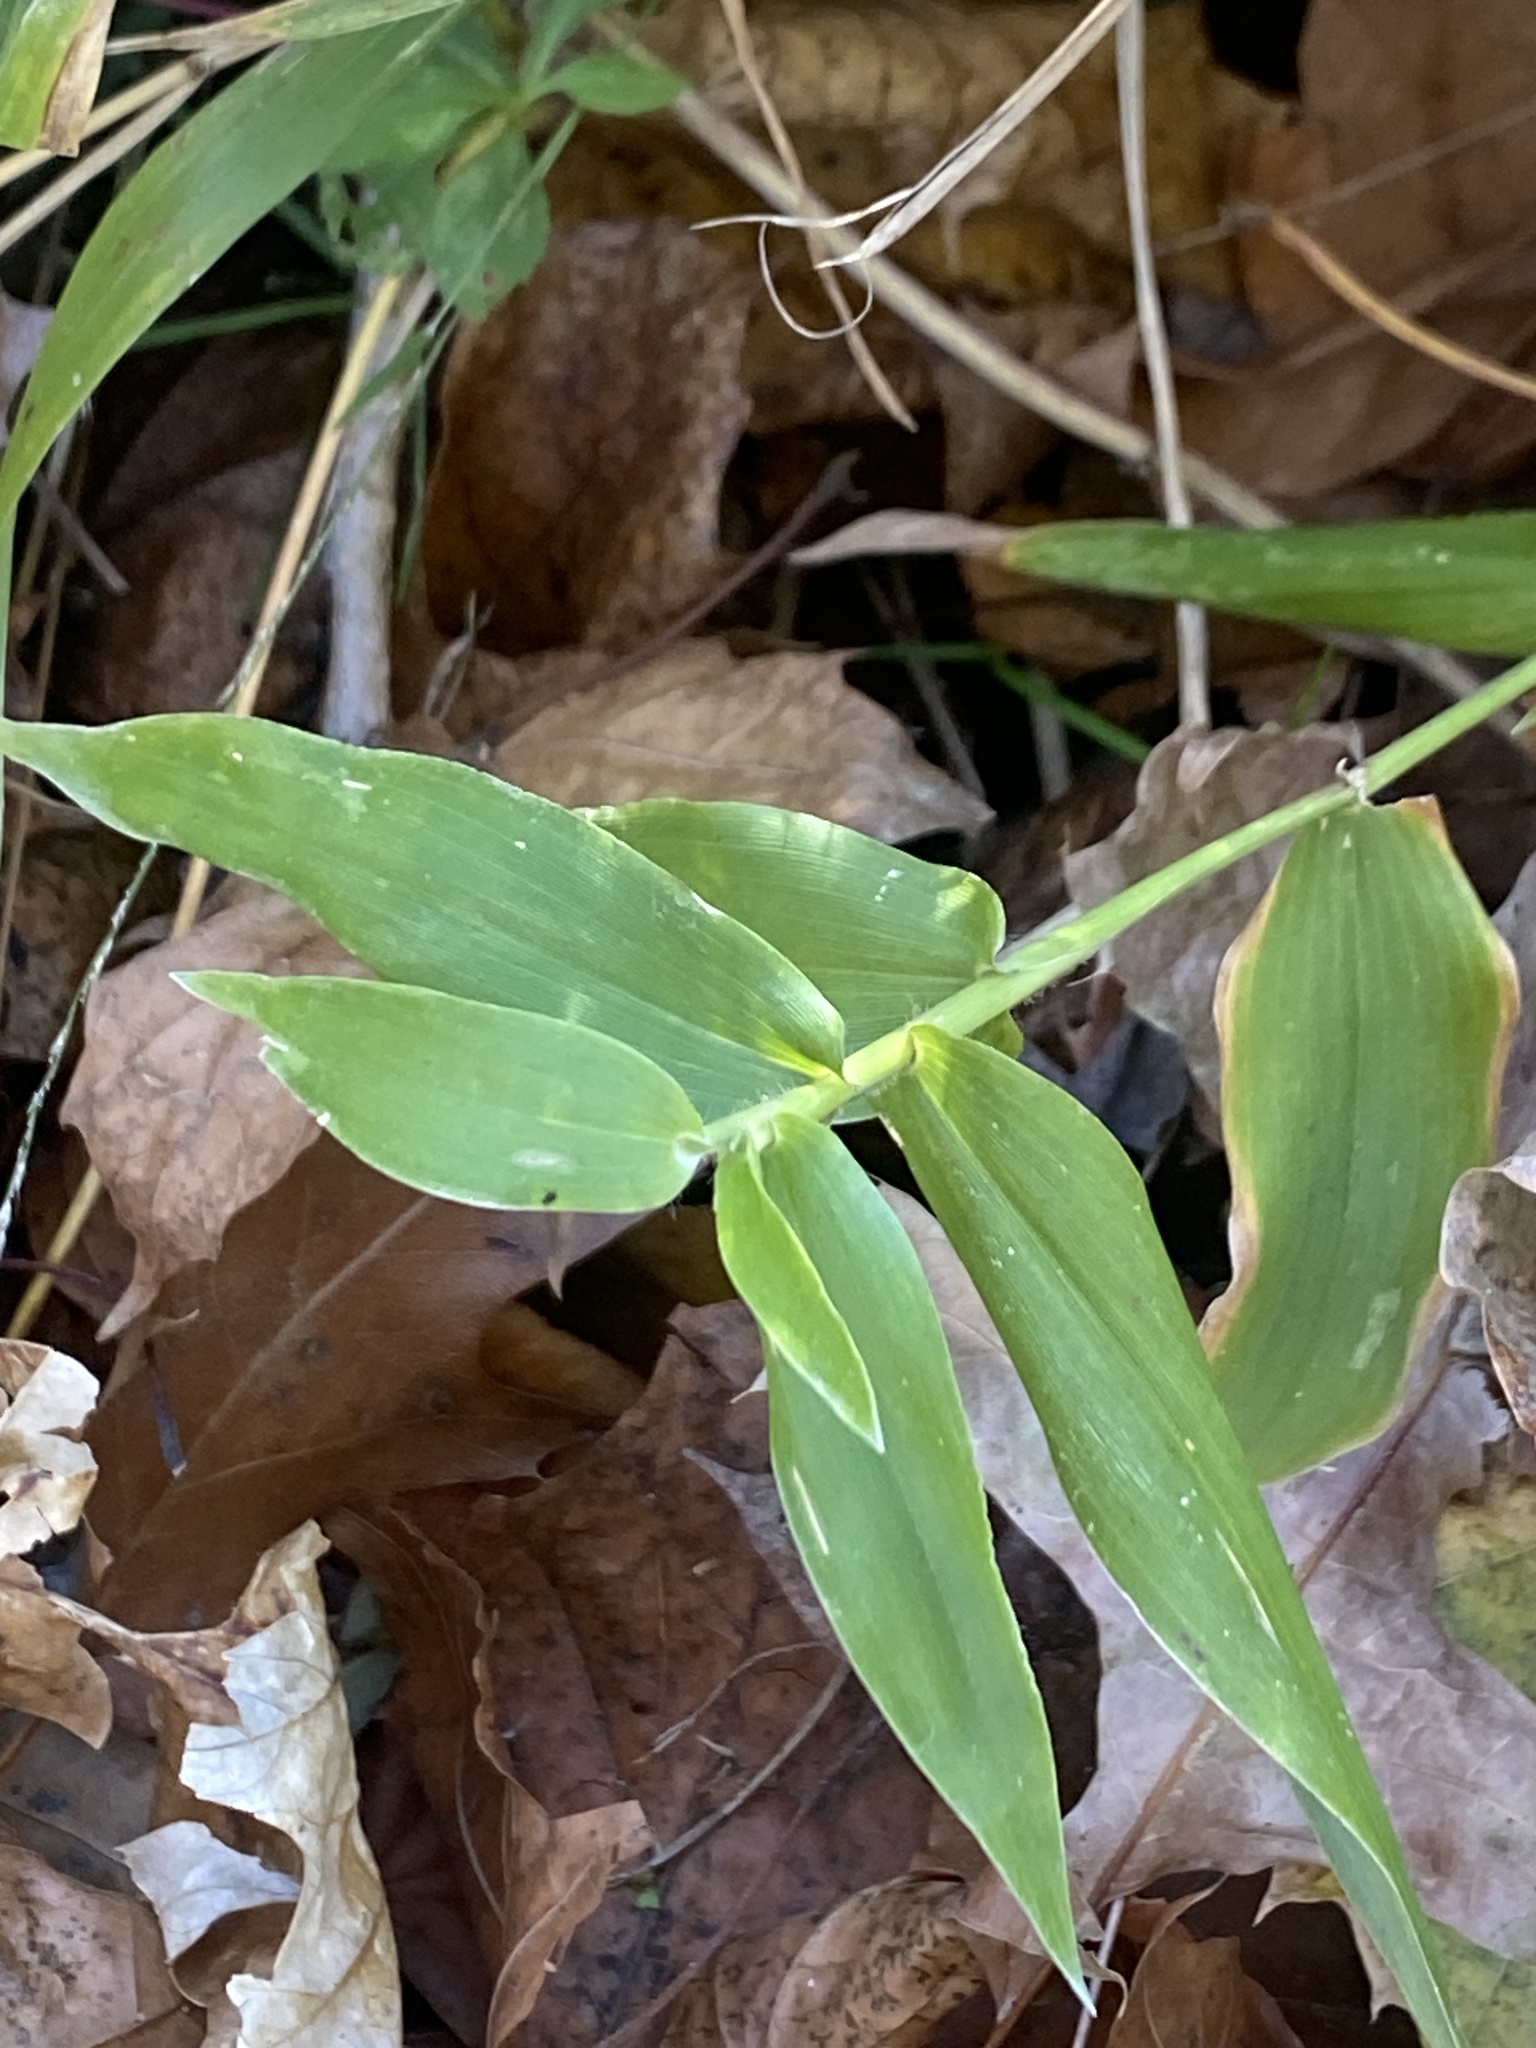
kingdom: Plantae
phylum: Tracheophyta
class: Liliopsida
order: Poales
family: Poaceae
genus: Dichanthelium
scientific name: Dichanthelium clandestinum
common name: Deer-tongue grass
